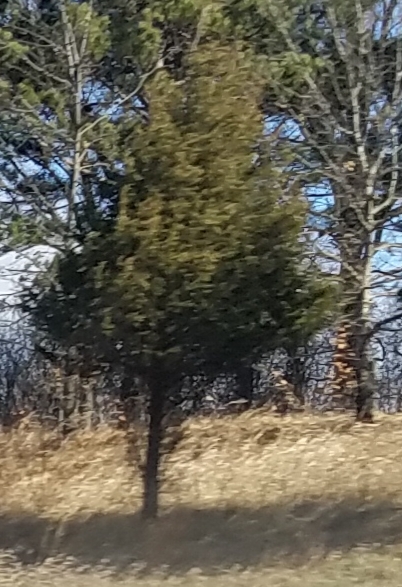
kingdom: Plantae
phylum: Tracheophyta
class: Pinopsida
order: Pinales
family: Cupressaceae
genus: Juniperus
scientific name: Juniperus virginiana
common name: Red juniper
